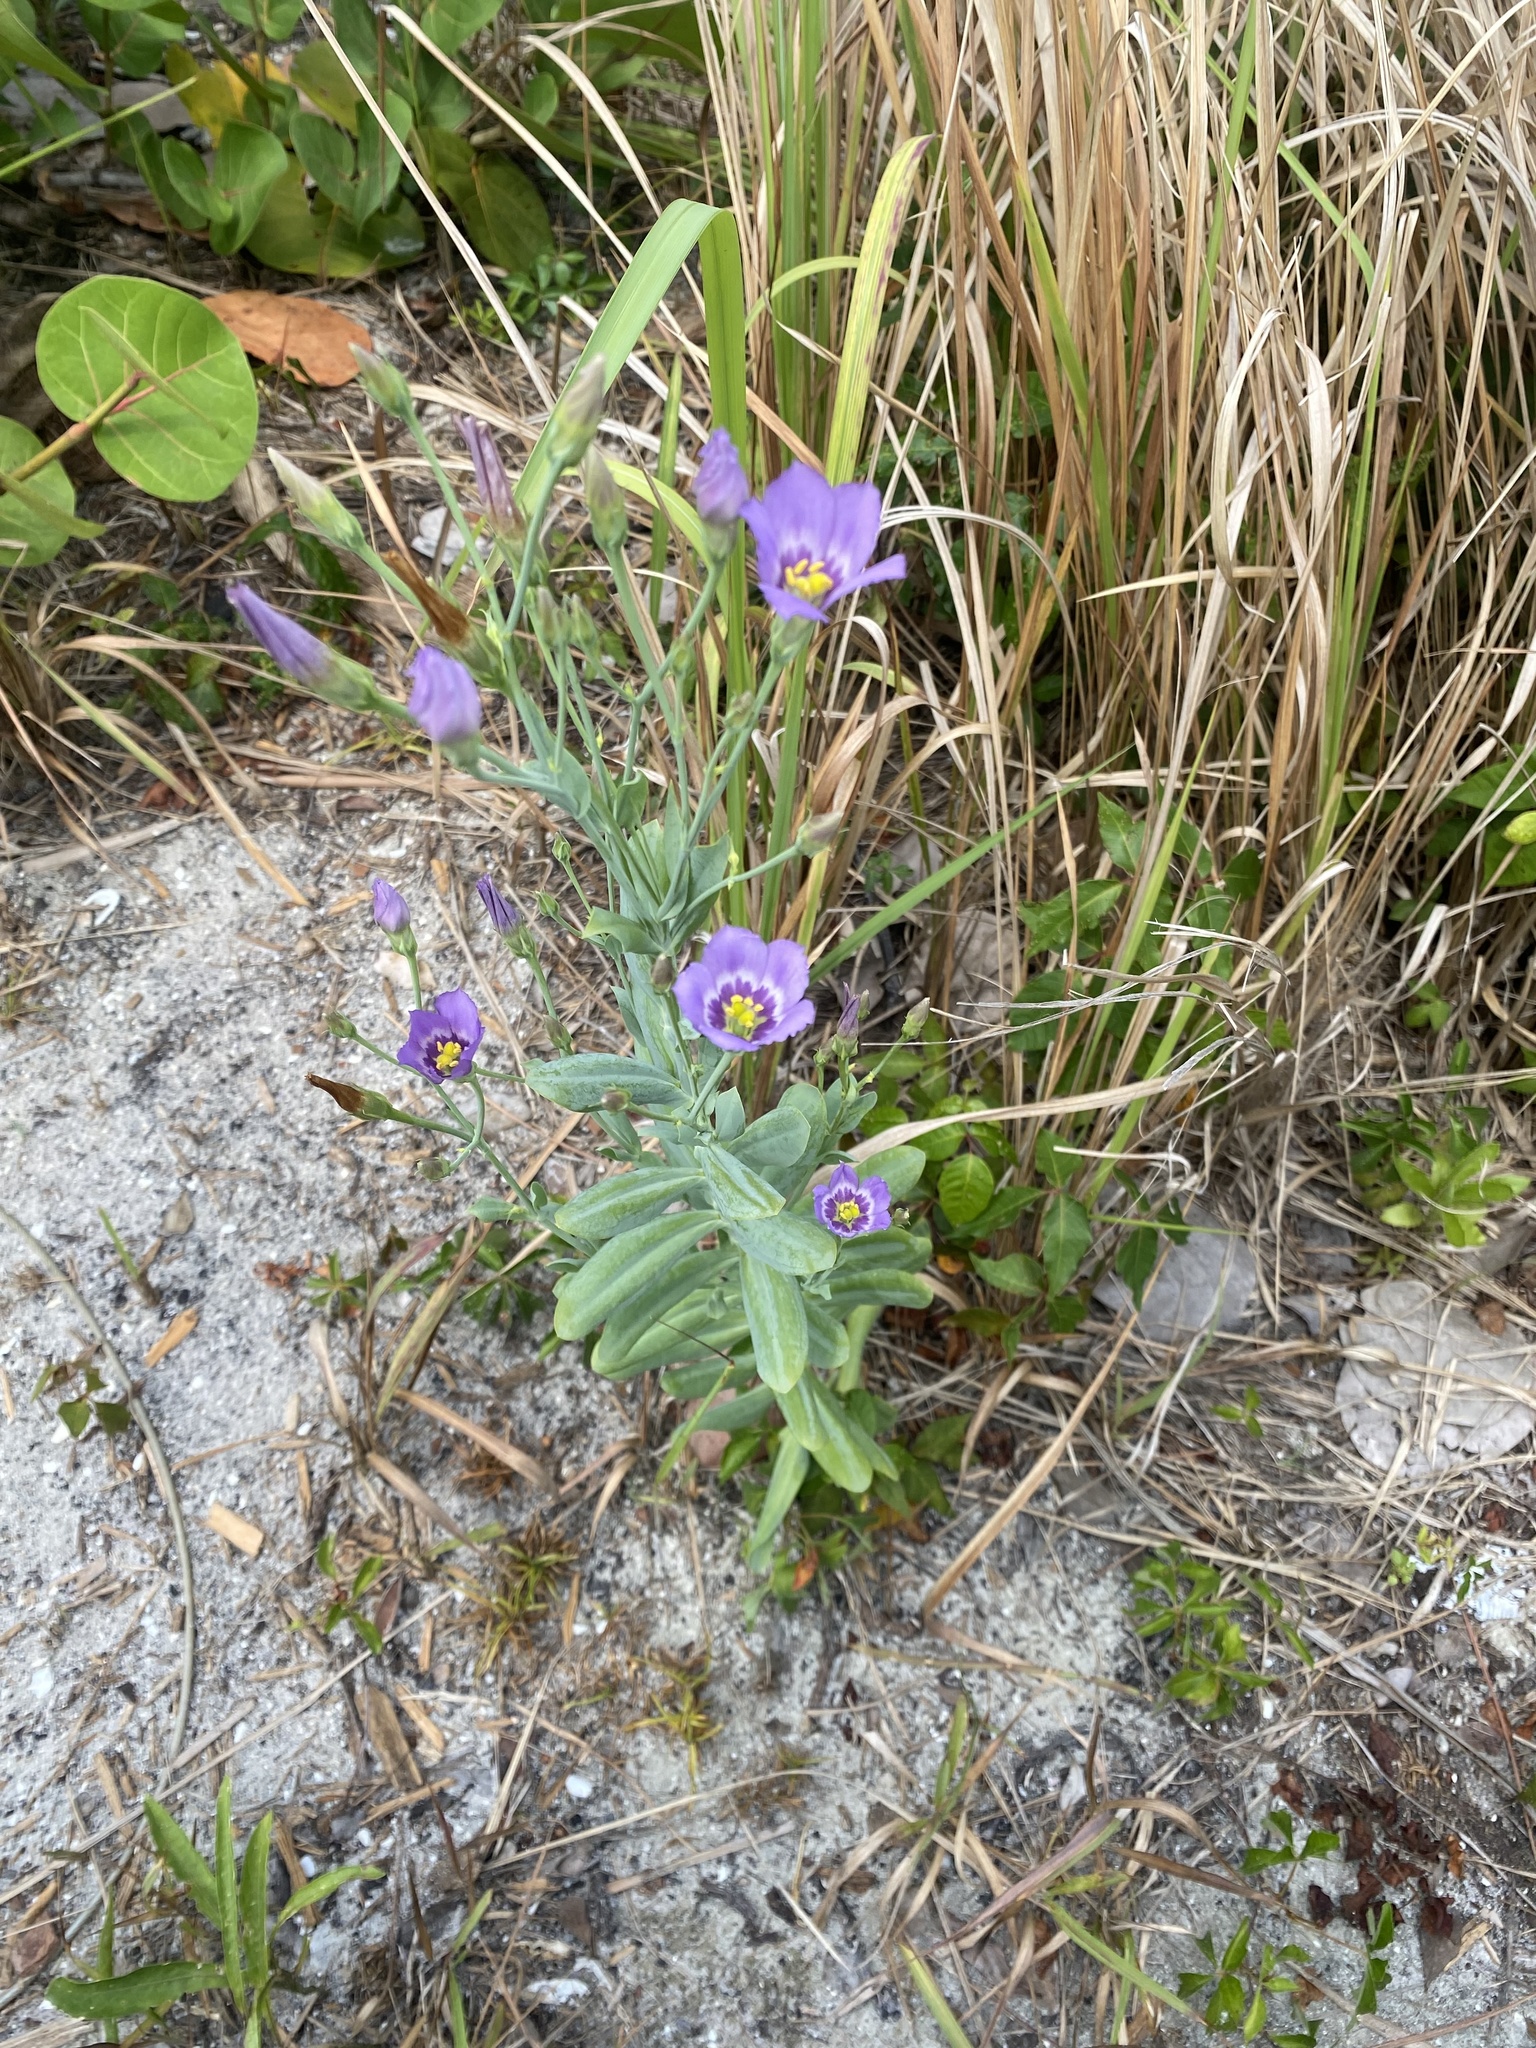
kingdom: Plantae
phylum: Tracheophyta
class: Magnoliopsida
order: Gentianales
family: Gentianaceae
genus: Eustoma
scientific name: Eustoma exaltatum
